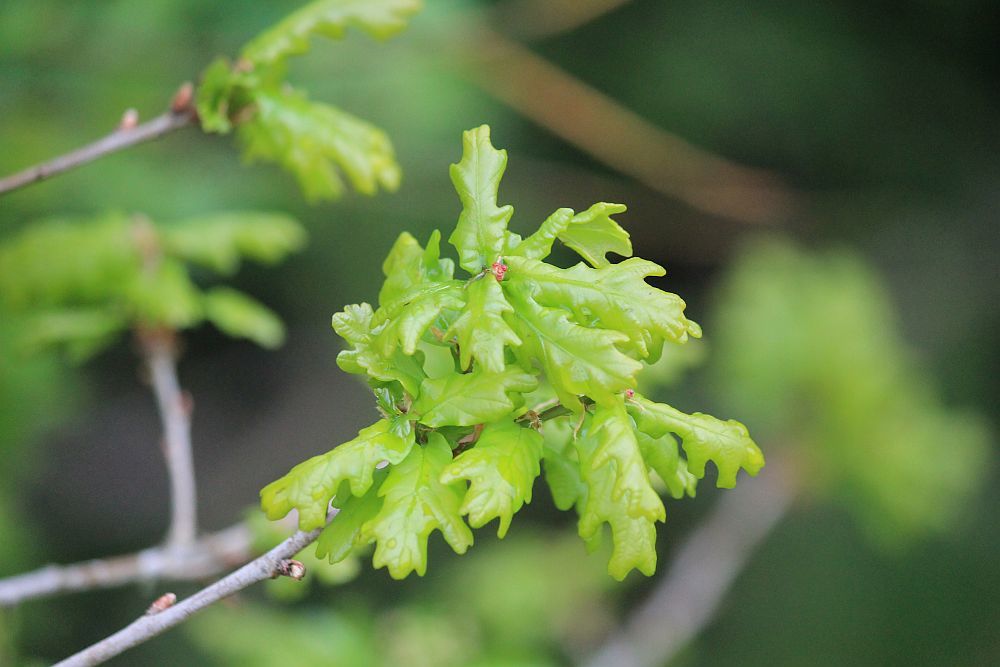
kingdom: Plantae
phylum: Tracheophyta
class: Magnoliopsida
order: Fagales
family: Fagaceae
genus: Quercus
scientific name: Quercus robur
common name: Pedunculate oak
